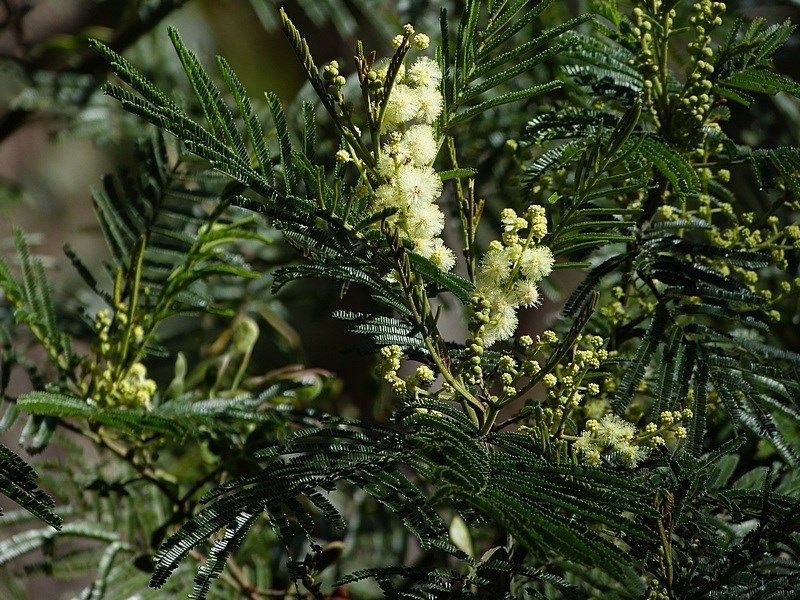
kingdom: Plantae
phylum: Tracheophyta
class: Magnoliopsida
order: Fabales
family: Fabaceae
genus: Acacia
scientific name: Acacia mearnsii
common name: Black wattle
